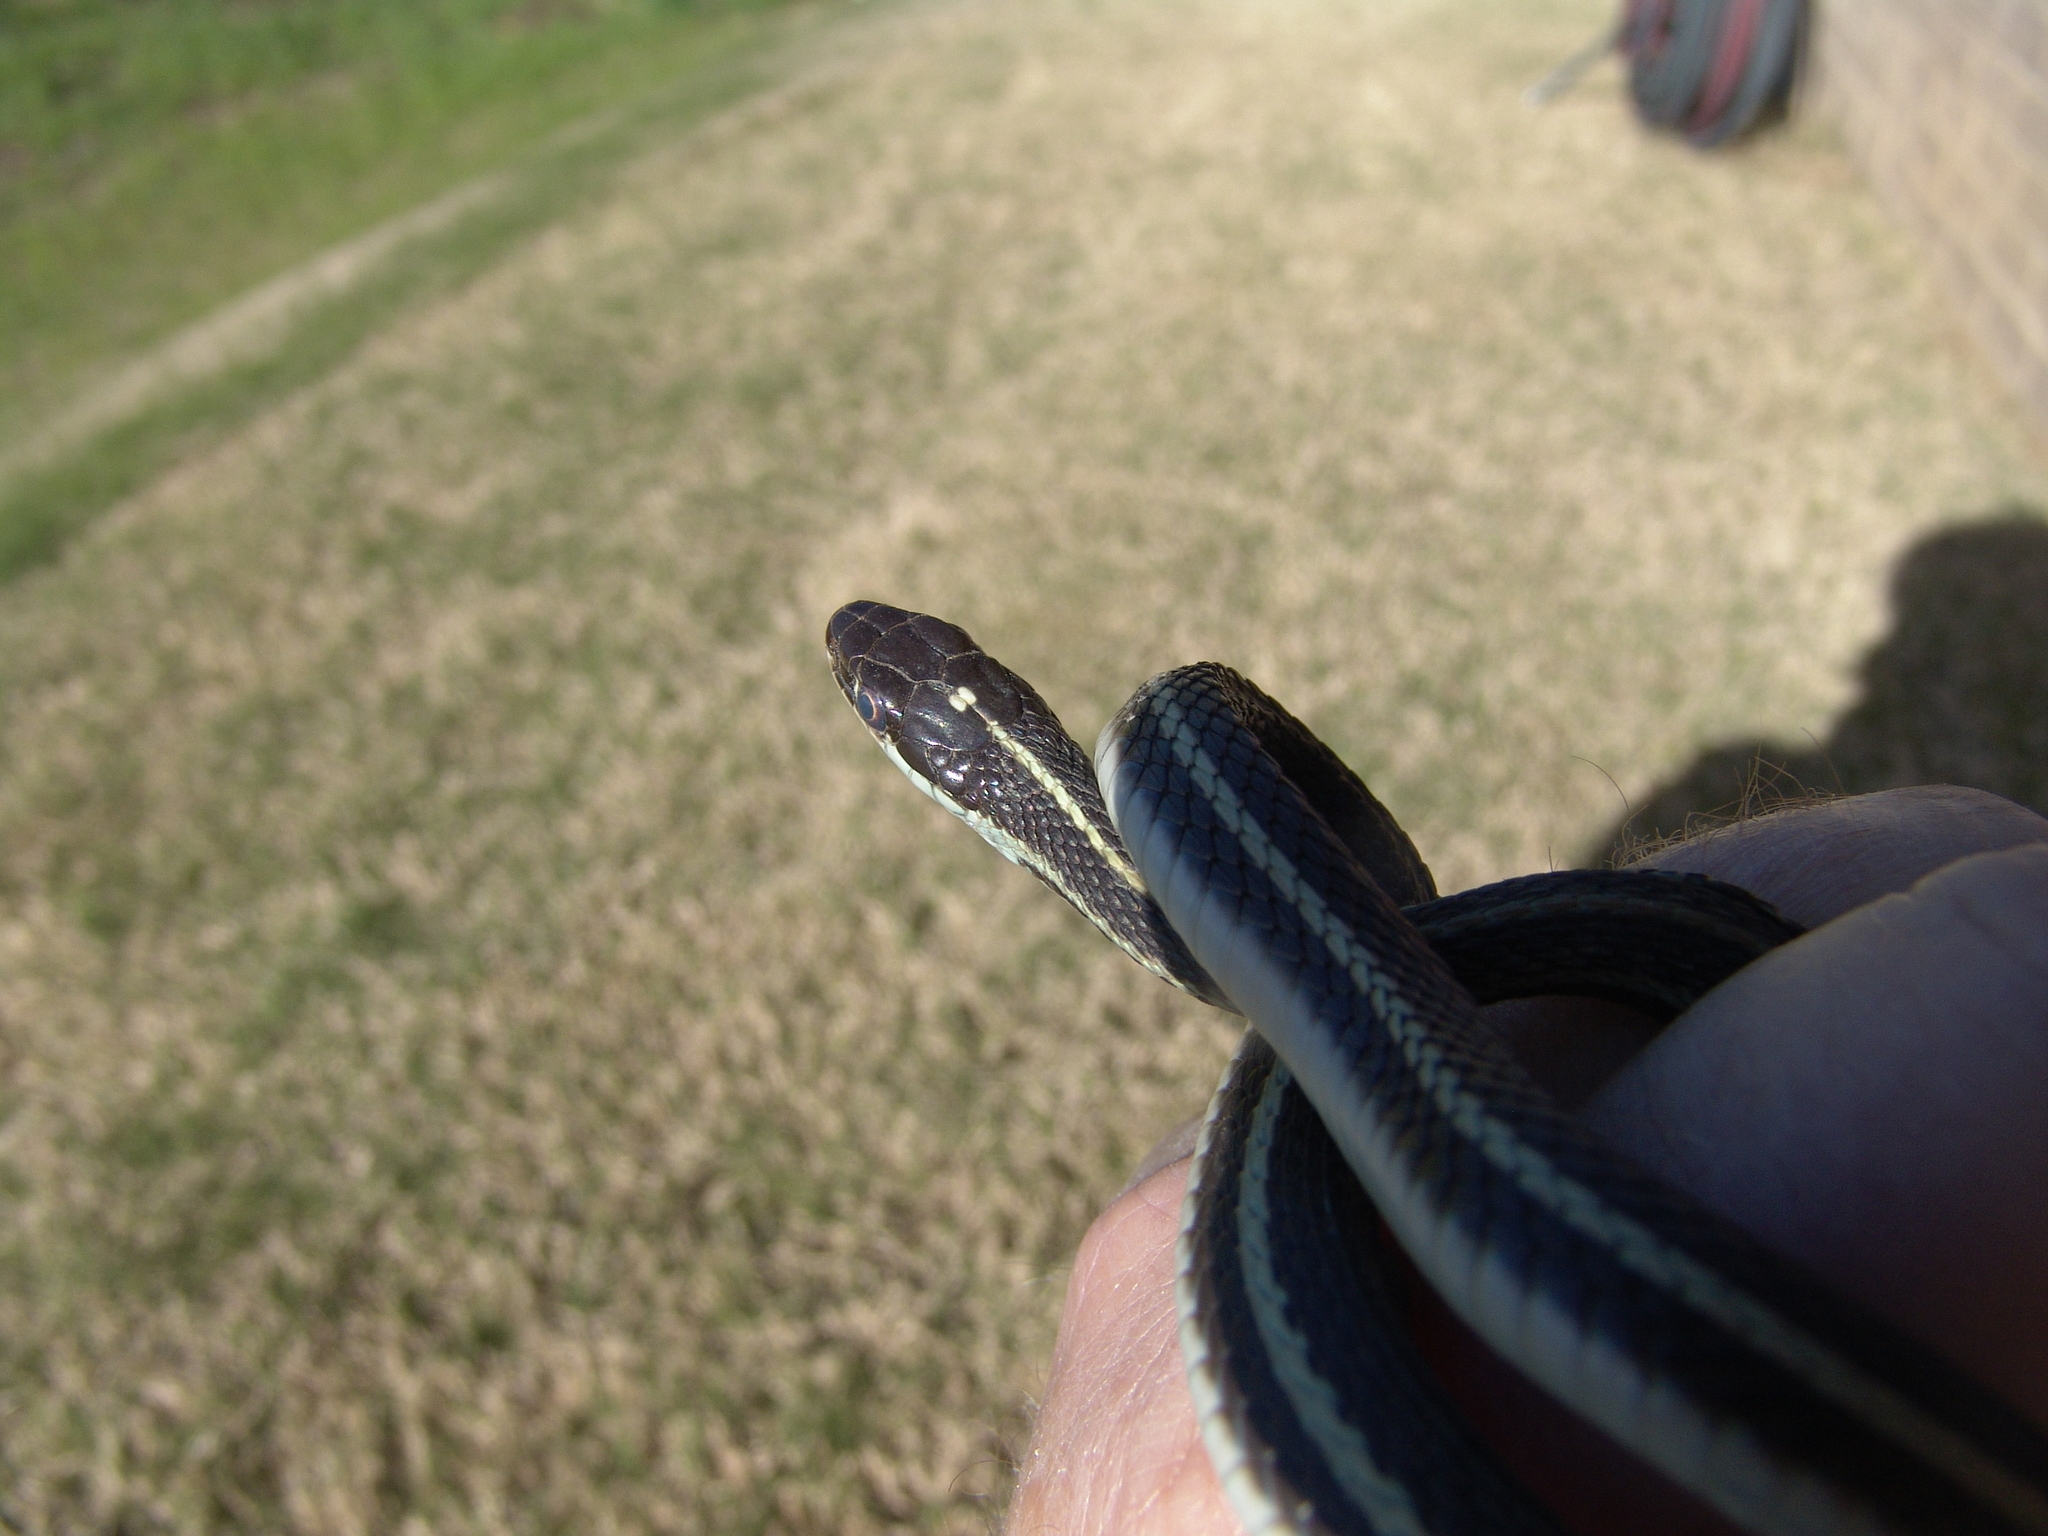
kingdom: Animalia
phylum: Chordata
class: Squamata
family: Colubridae
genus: Thamnophis
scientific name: Thamnophis proximus
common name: Western ribbon snake
